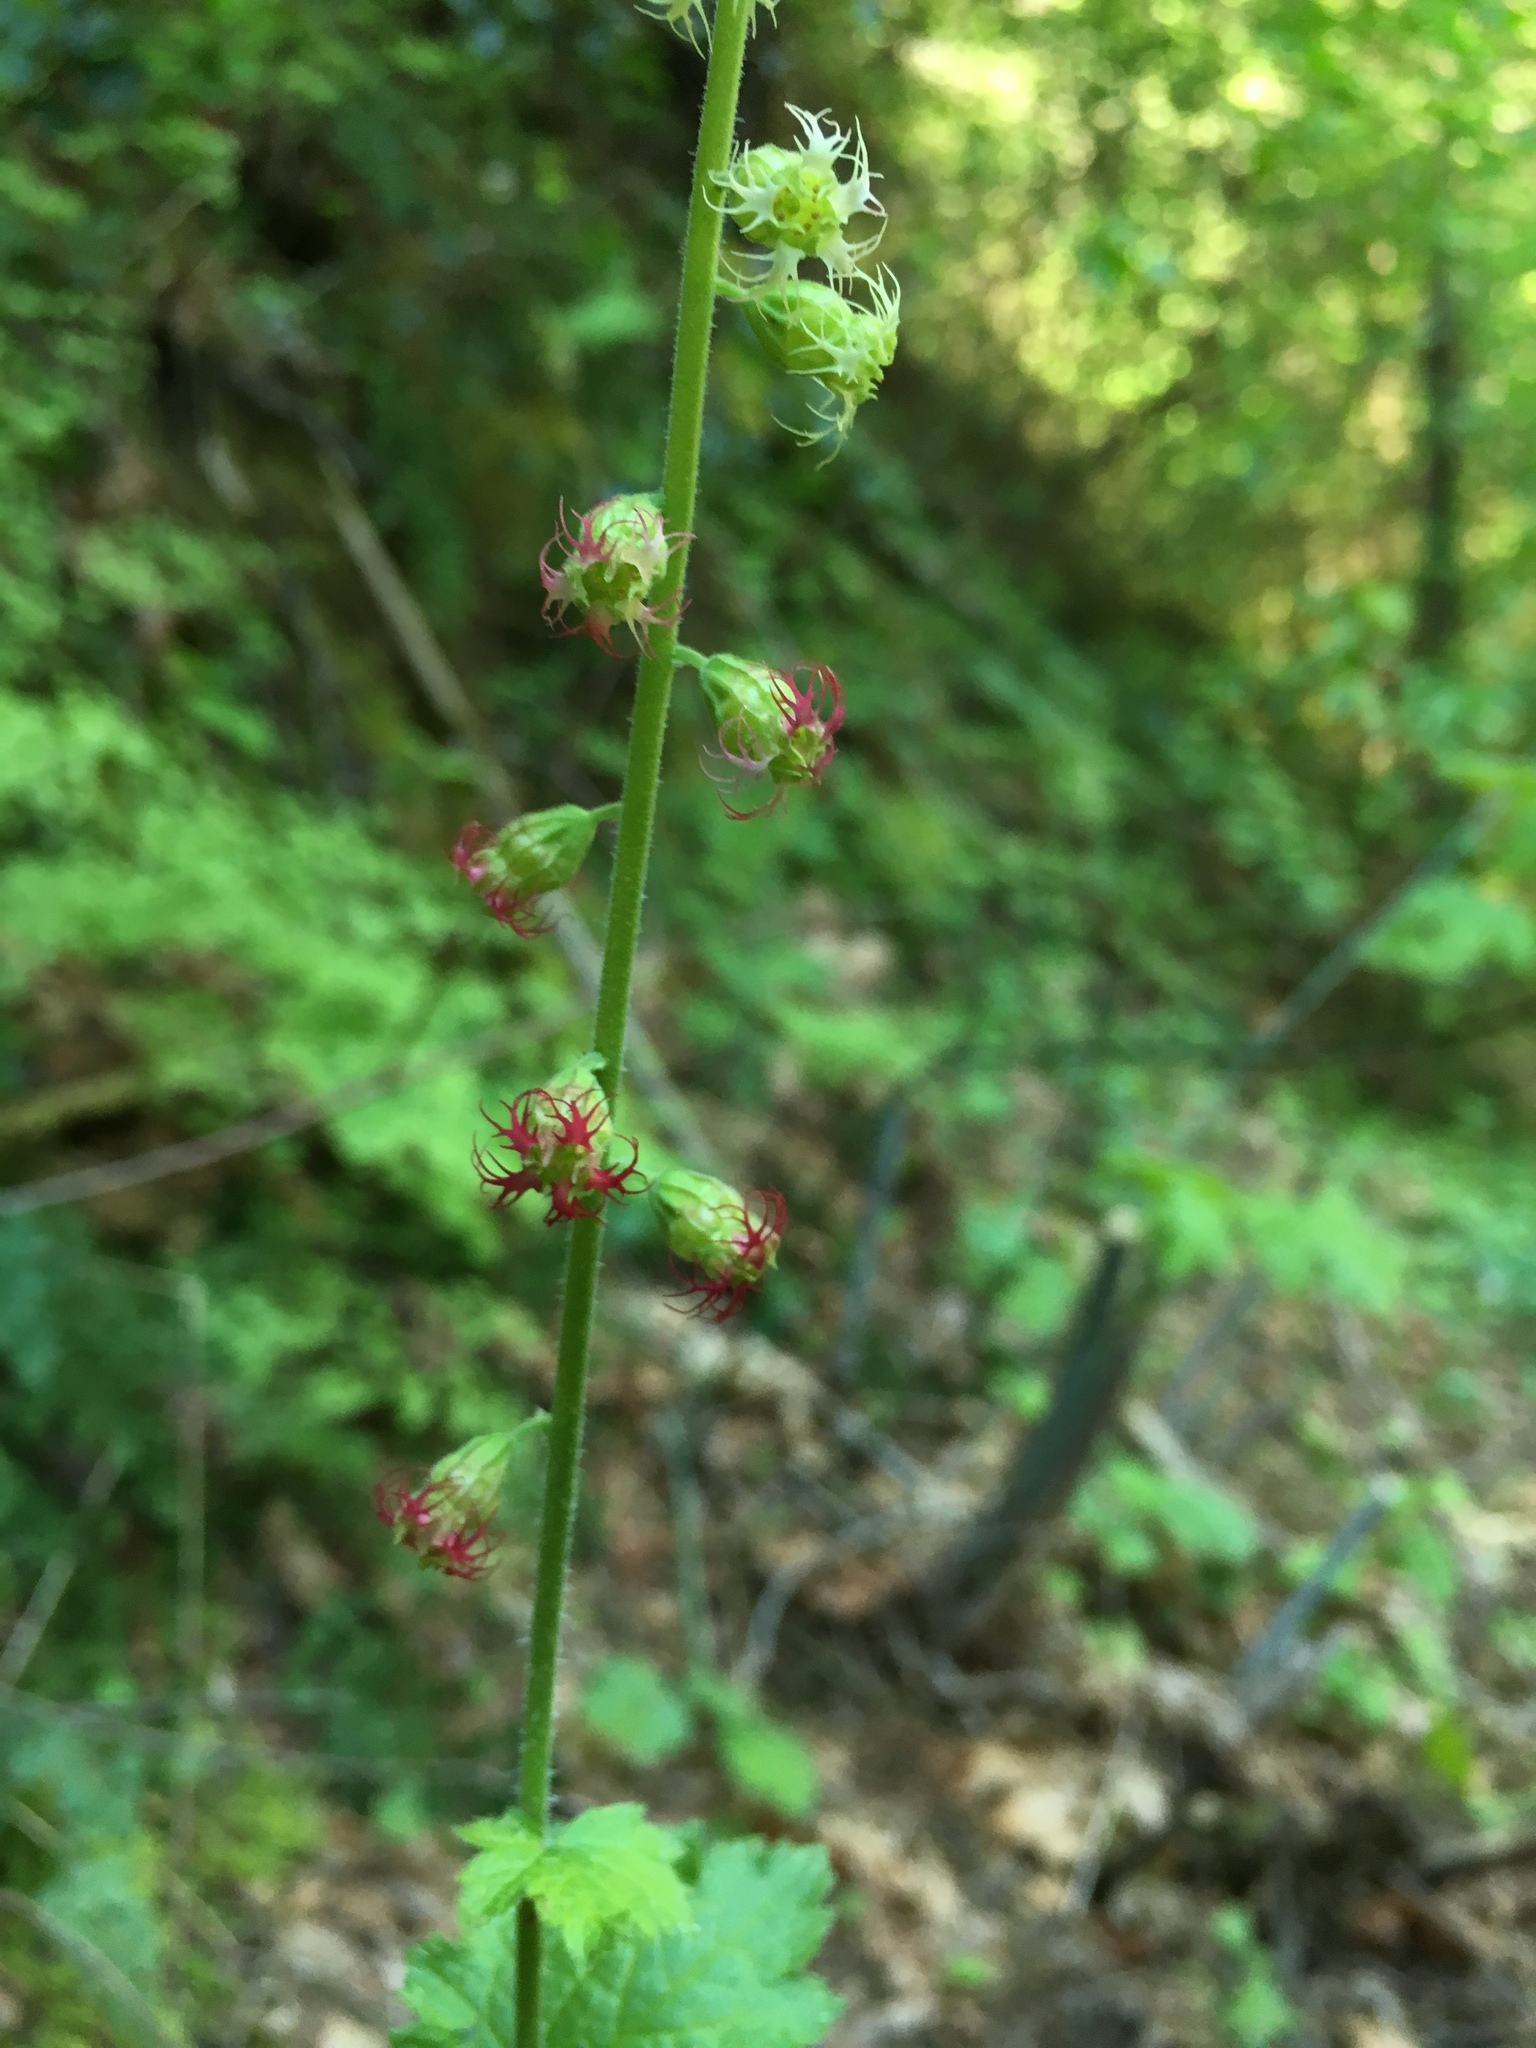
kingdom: Plantae
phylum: Tracheophyta
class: Magnoliopsida
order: Saxifragales
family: Saxifragaceae
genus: Tellima
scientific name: Tellima grandiflora
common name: Fringecups
